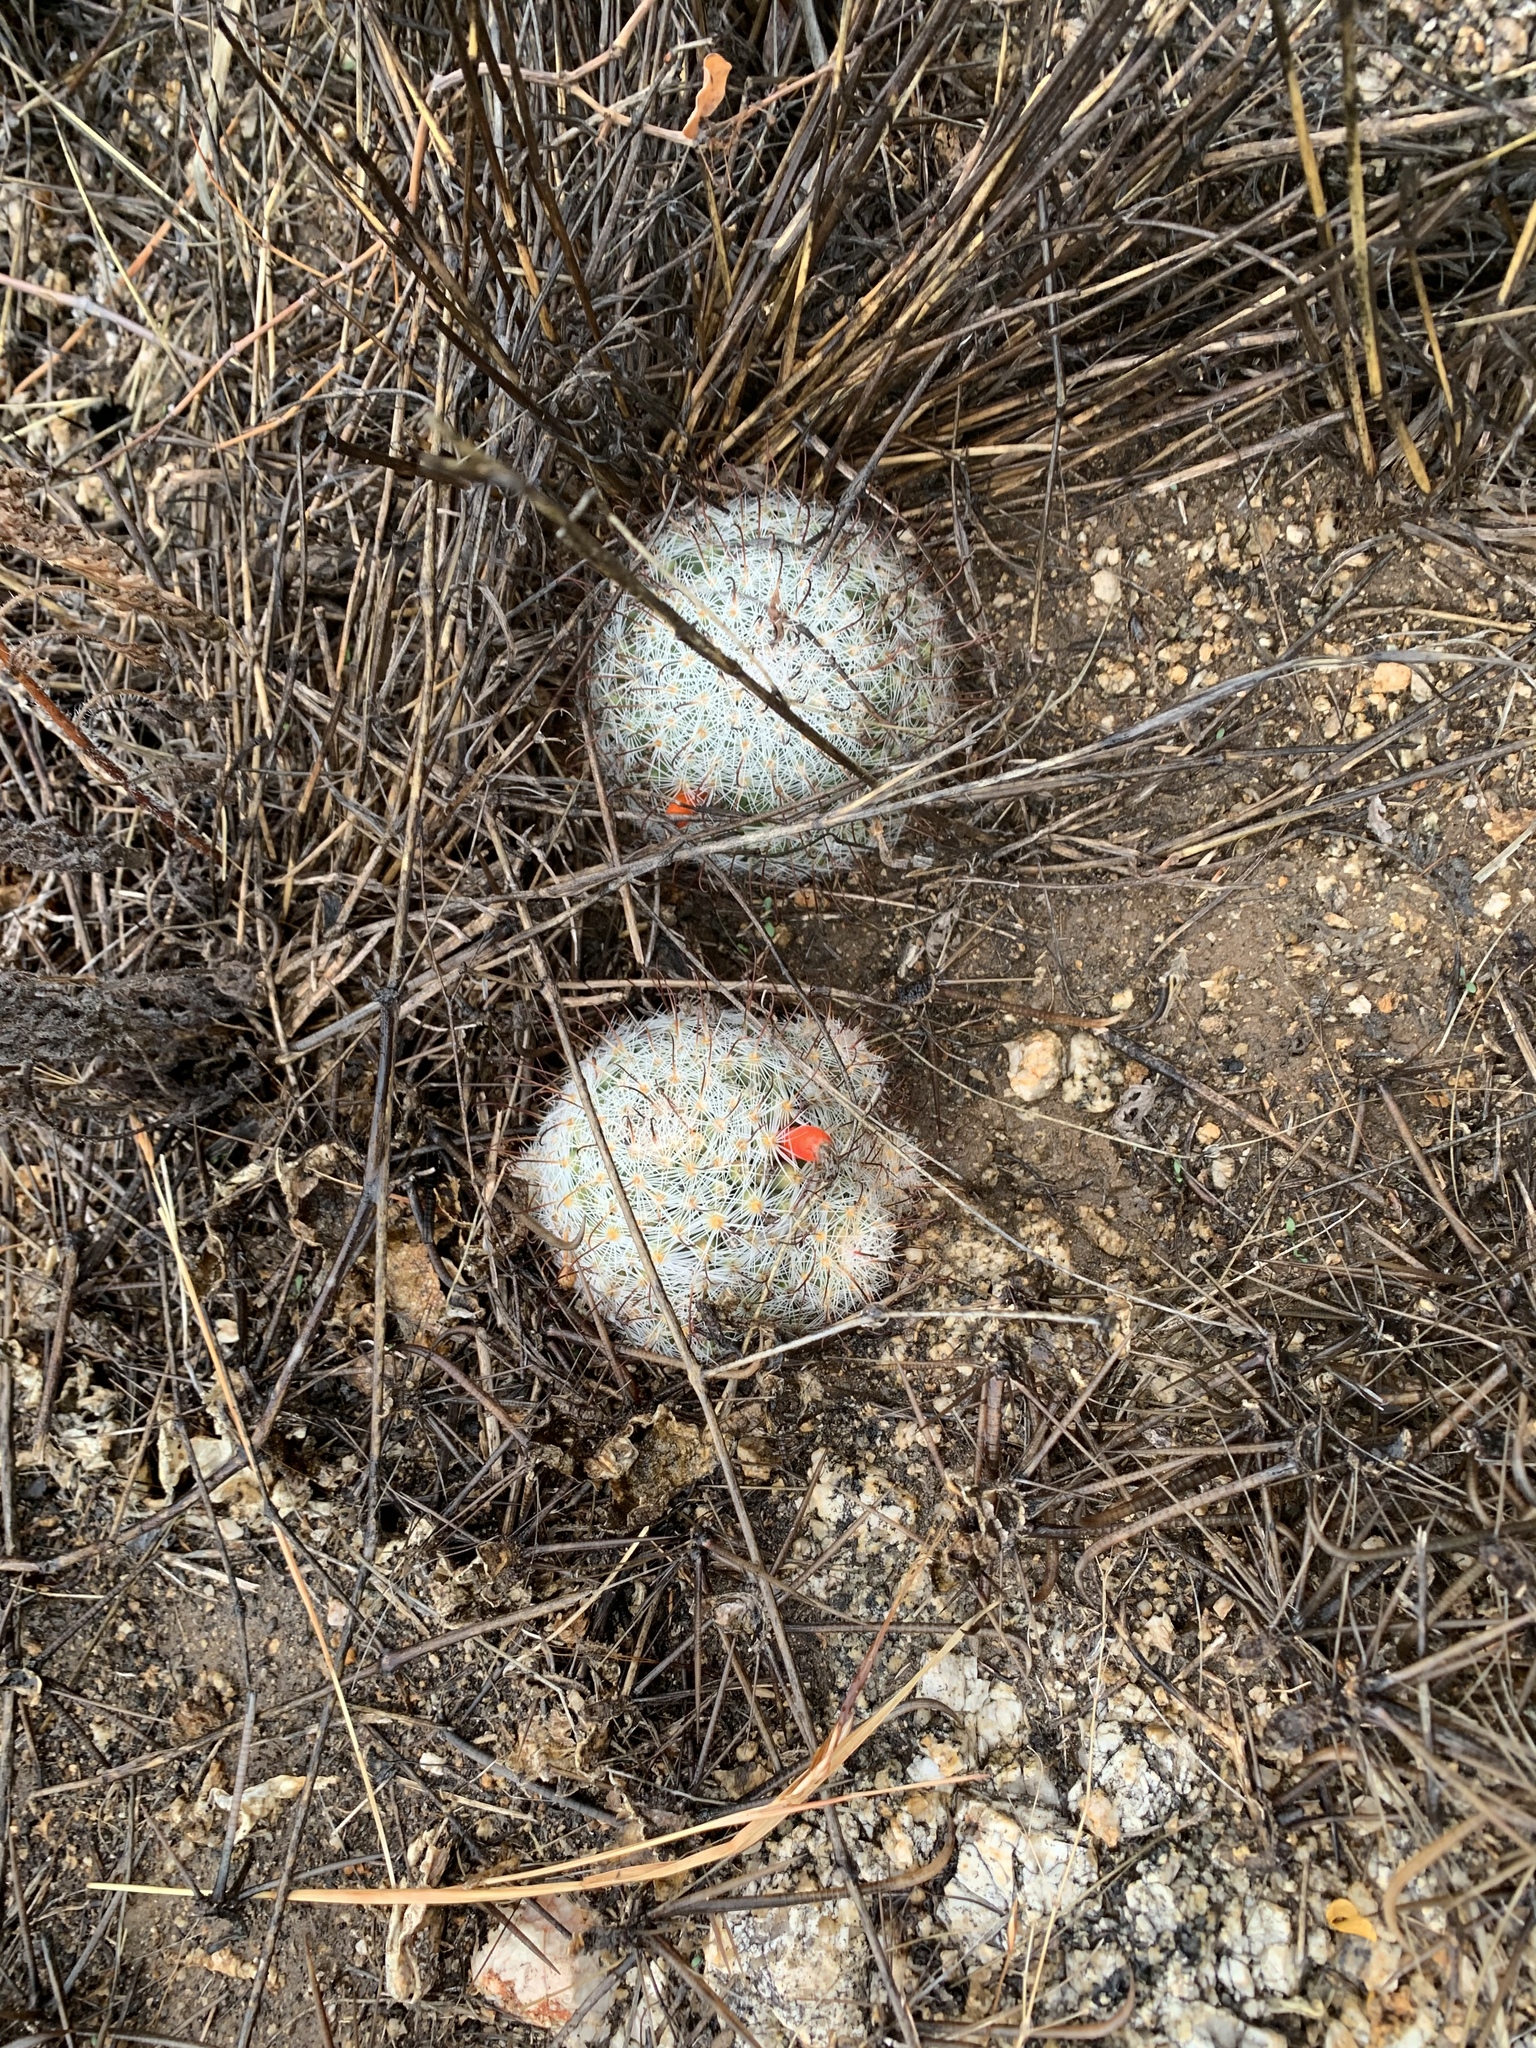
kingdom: Plantae
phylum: Tracheophyta
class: Magnoliopsida
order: Caryophyllales
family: Cactaceae
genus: Cochemiea
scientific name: Cochemiea grahamii
